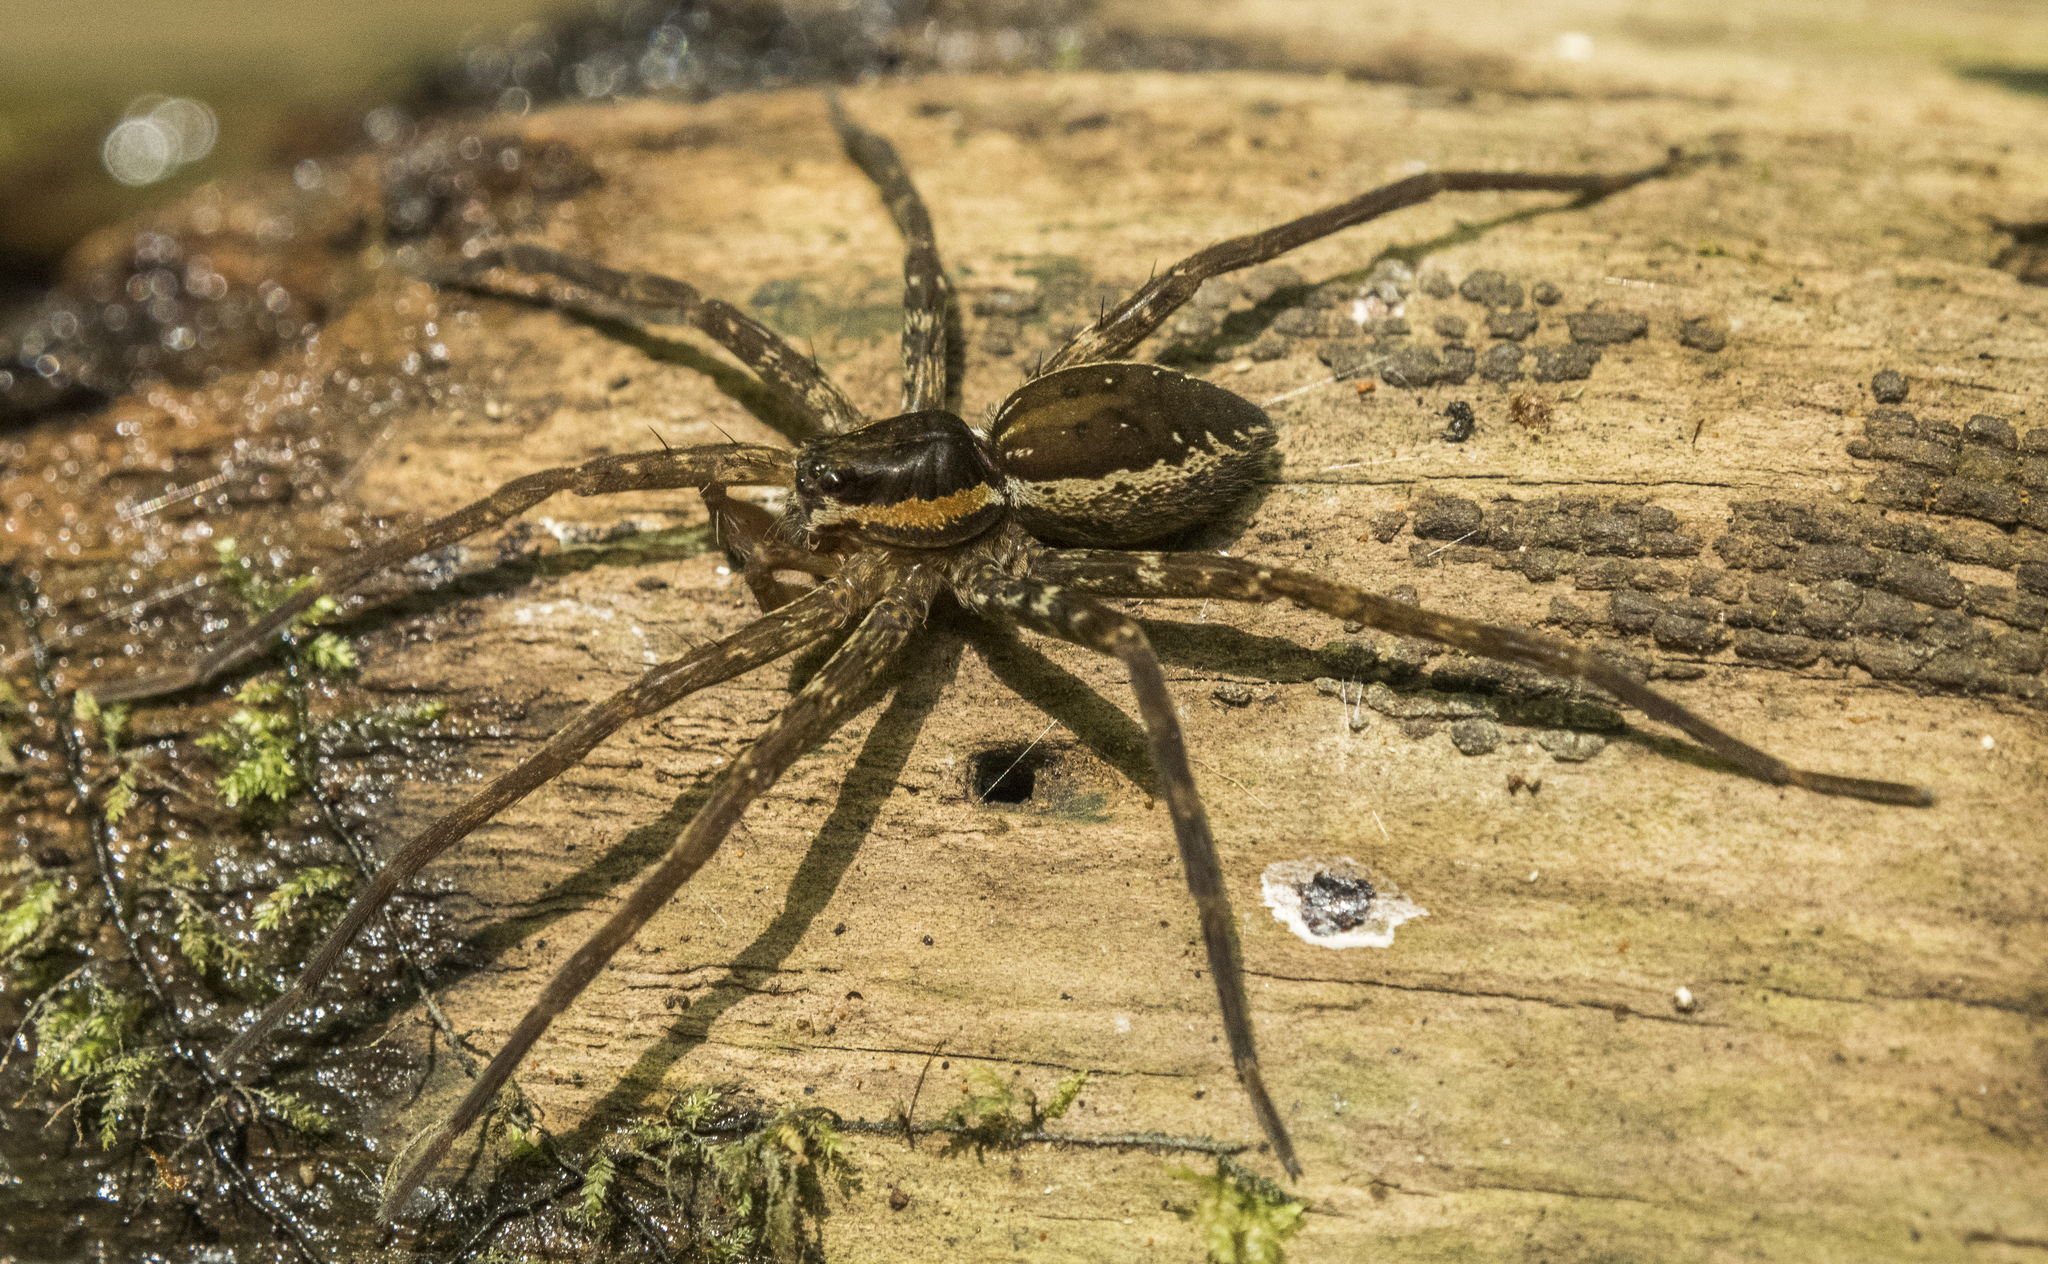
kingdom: Animalia
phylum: Arthropoda
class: Arachnida
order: Araneae
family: Pisauridae
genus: Dolomedes
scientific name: Dolomedes dondalei
